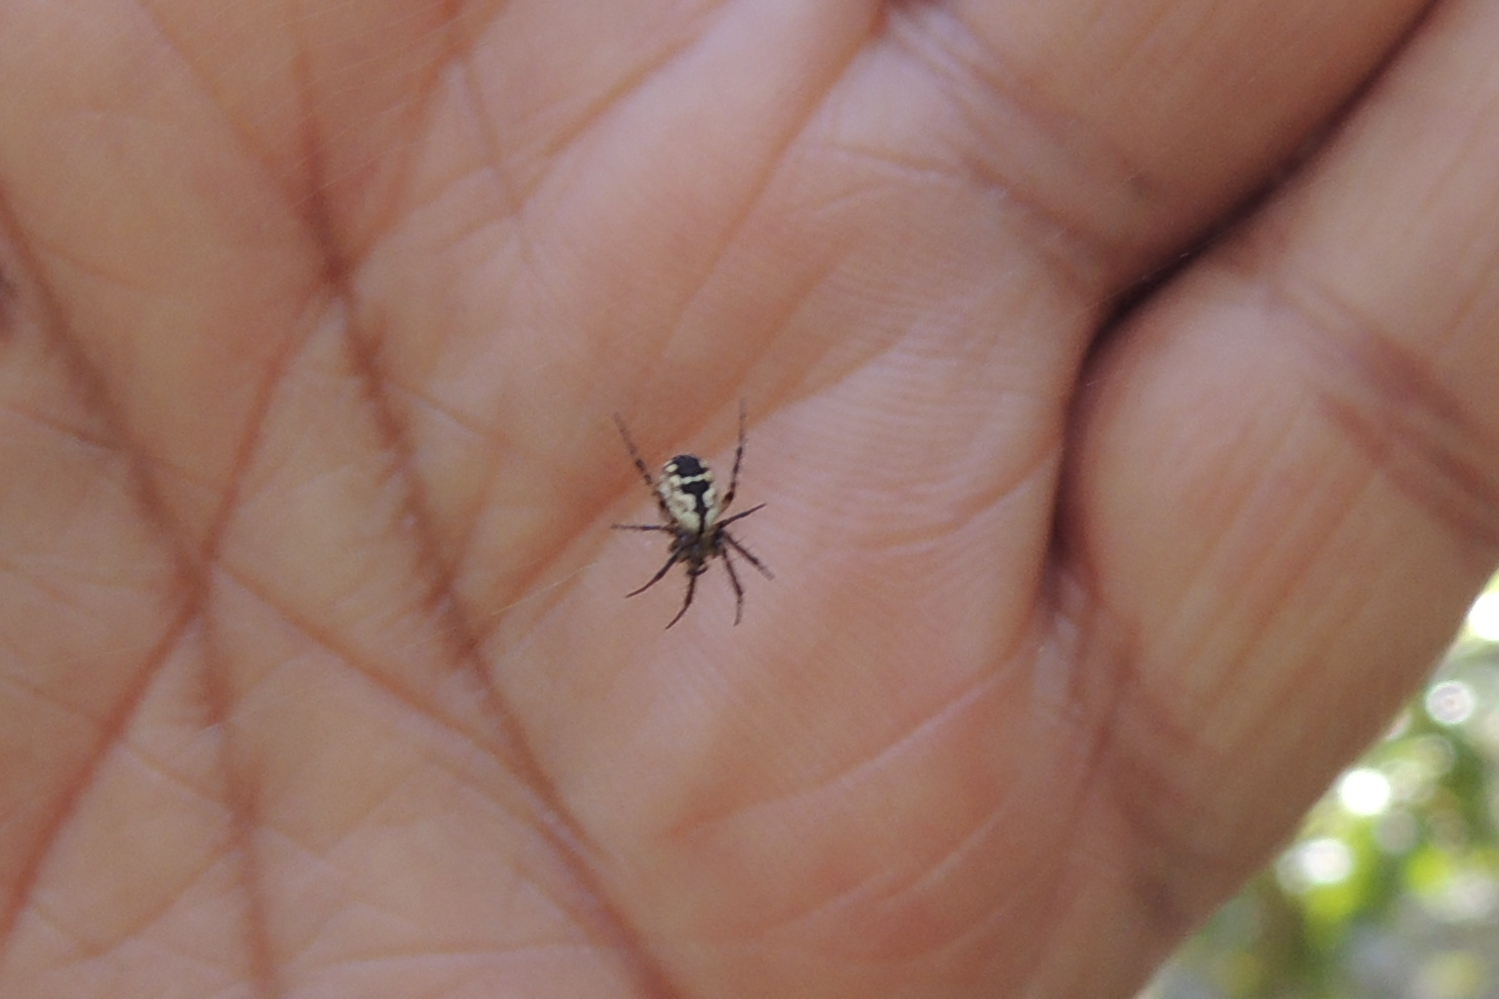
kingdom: Animalia
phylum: Arthropoda
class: Arachnida
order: Araneae
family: Araneidae
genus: Mangora
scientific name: Mangora placida
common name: Tuft-legged orbweaver
